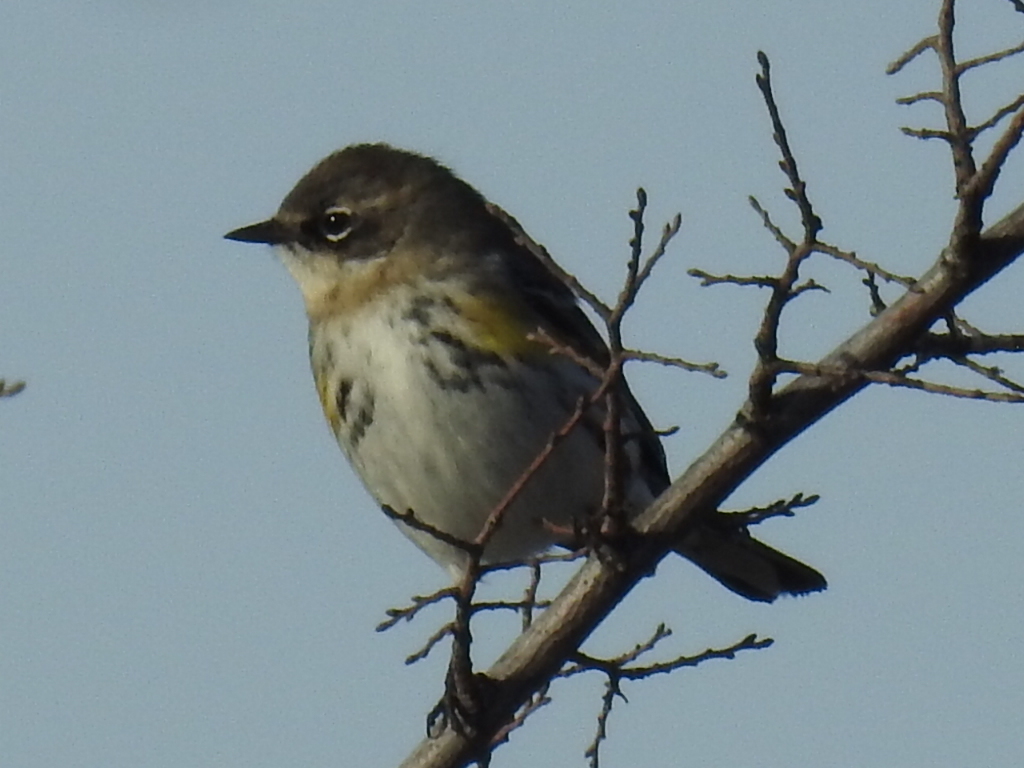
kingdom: Animalia
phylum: Chordata
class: Aves
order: Passeriformes
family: Parulidae
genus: Setophaga
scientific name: Setophaga coronata
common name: Myrtle warbler
